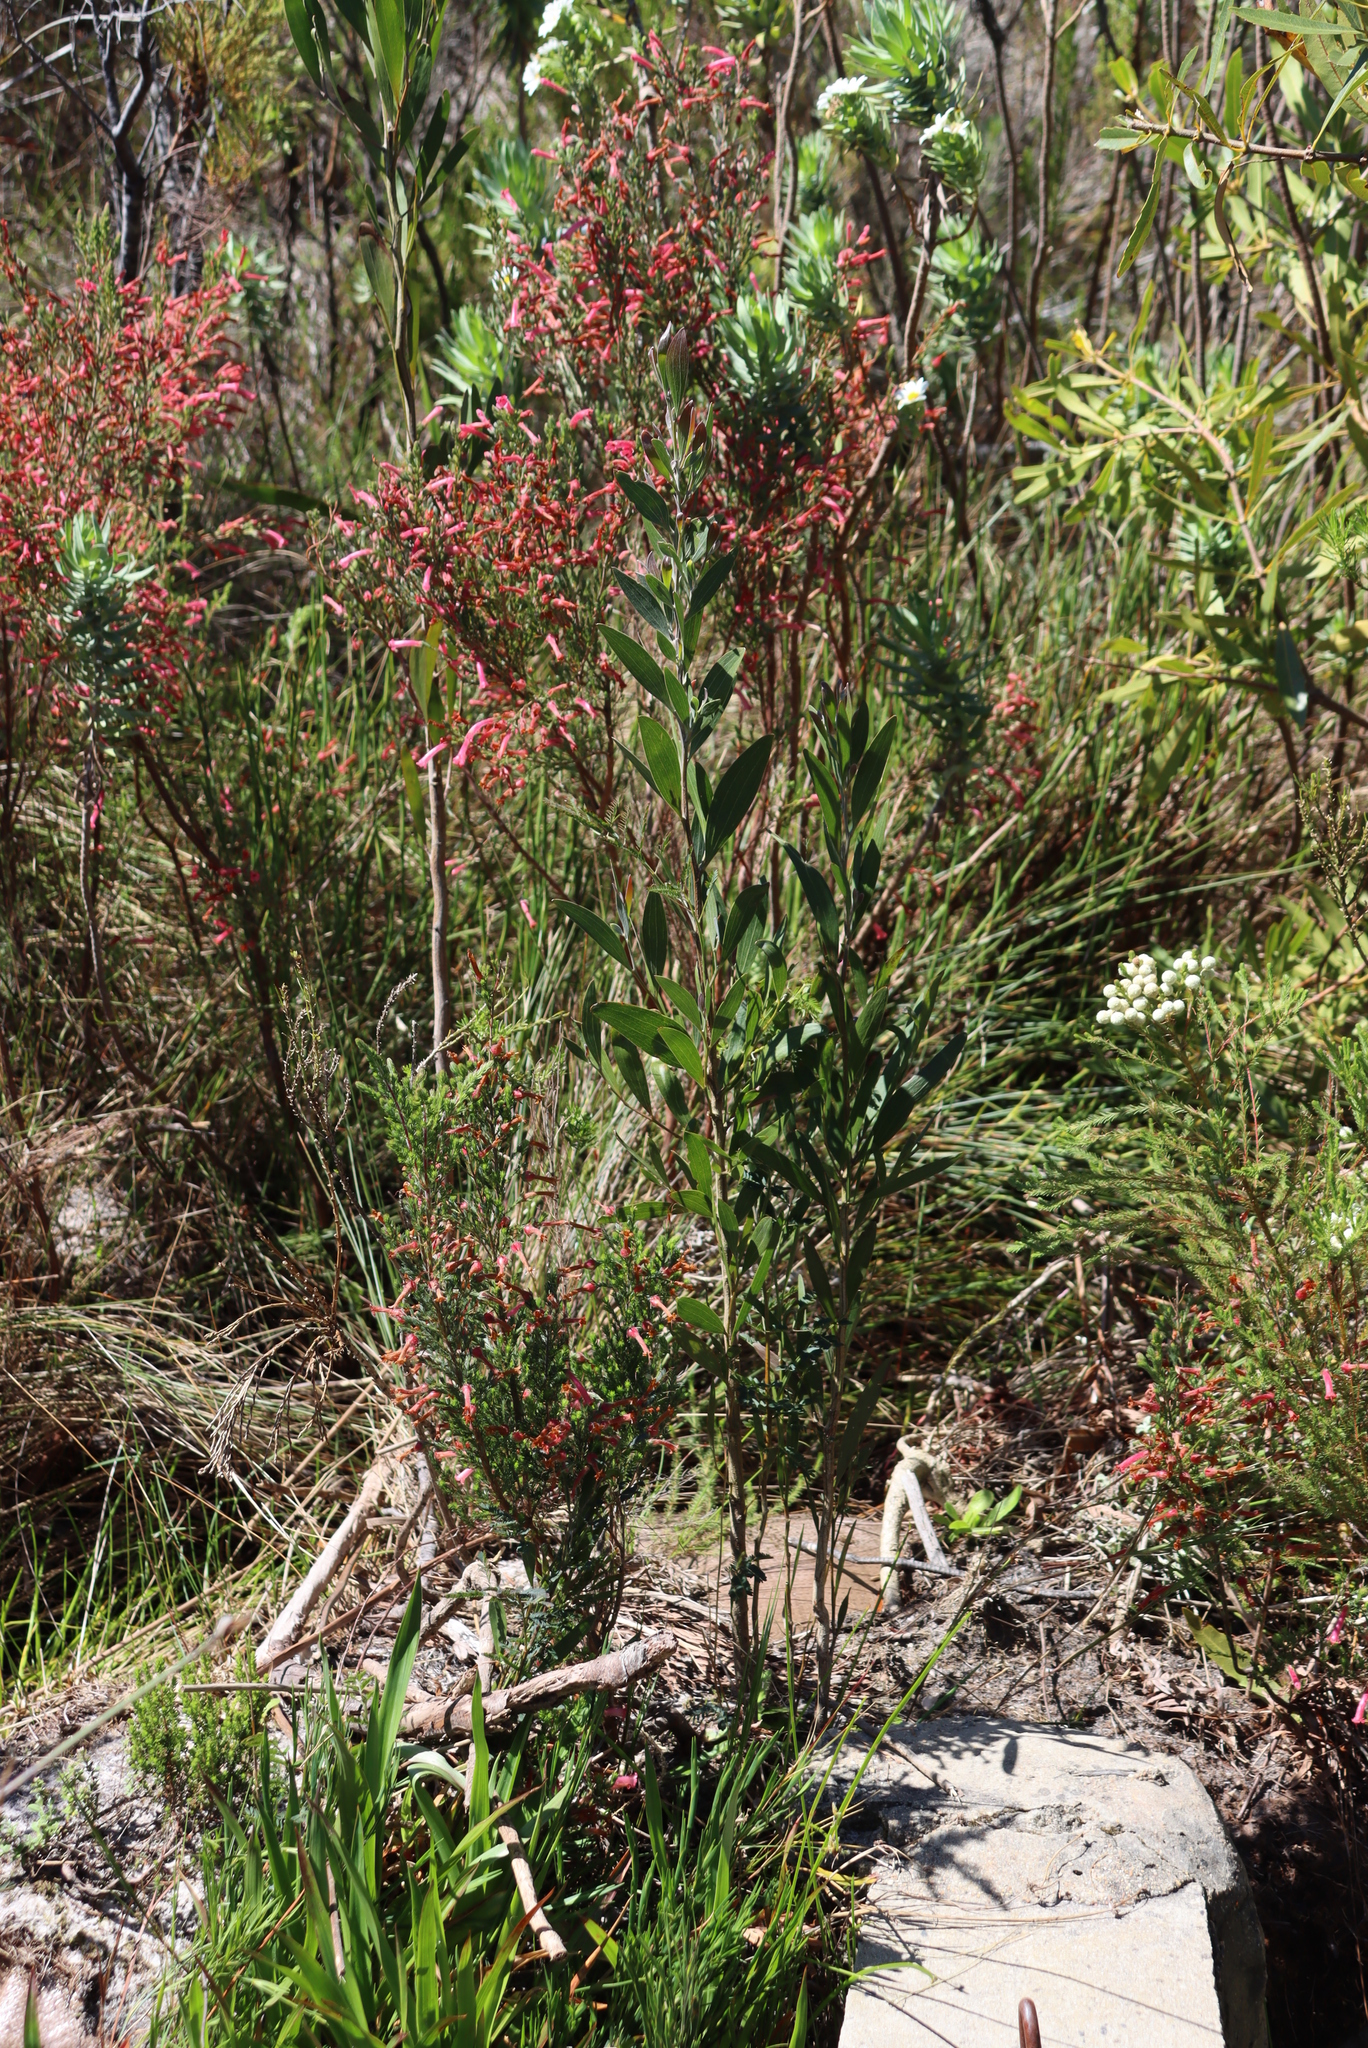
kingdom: Plantae
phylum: Tracheophyta
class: Magnoliopsida
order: Ericales
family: Ericaceae
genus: Erica
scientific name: Erica curviflora
